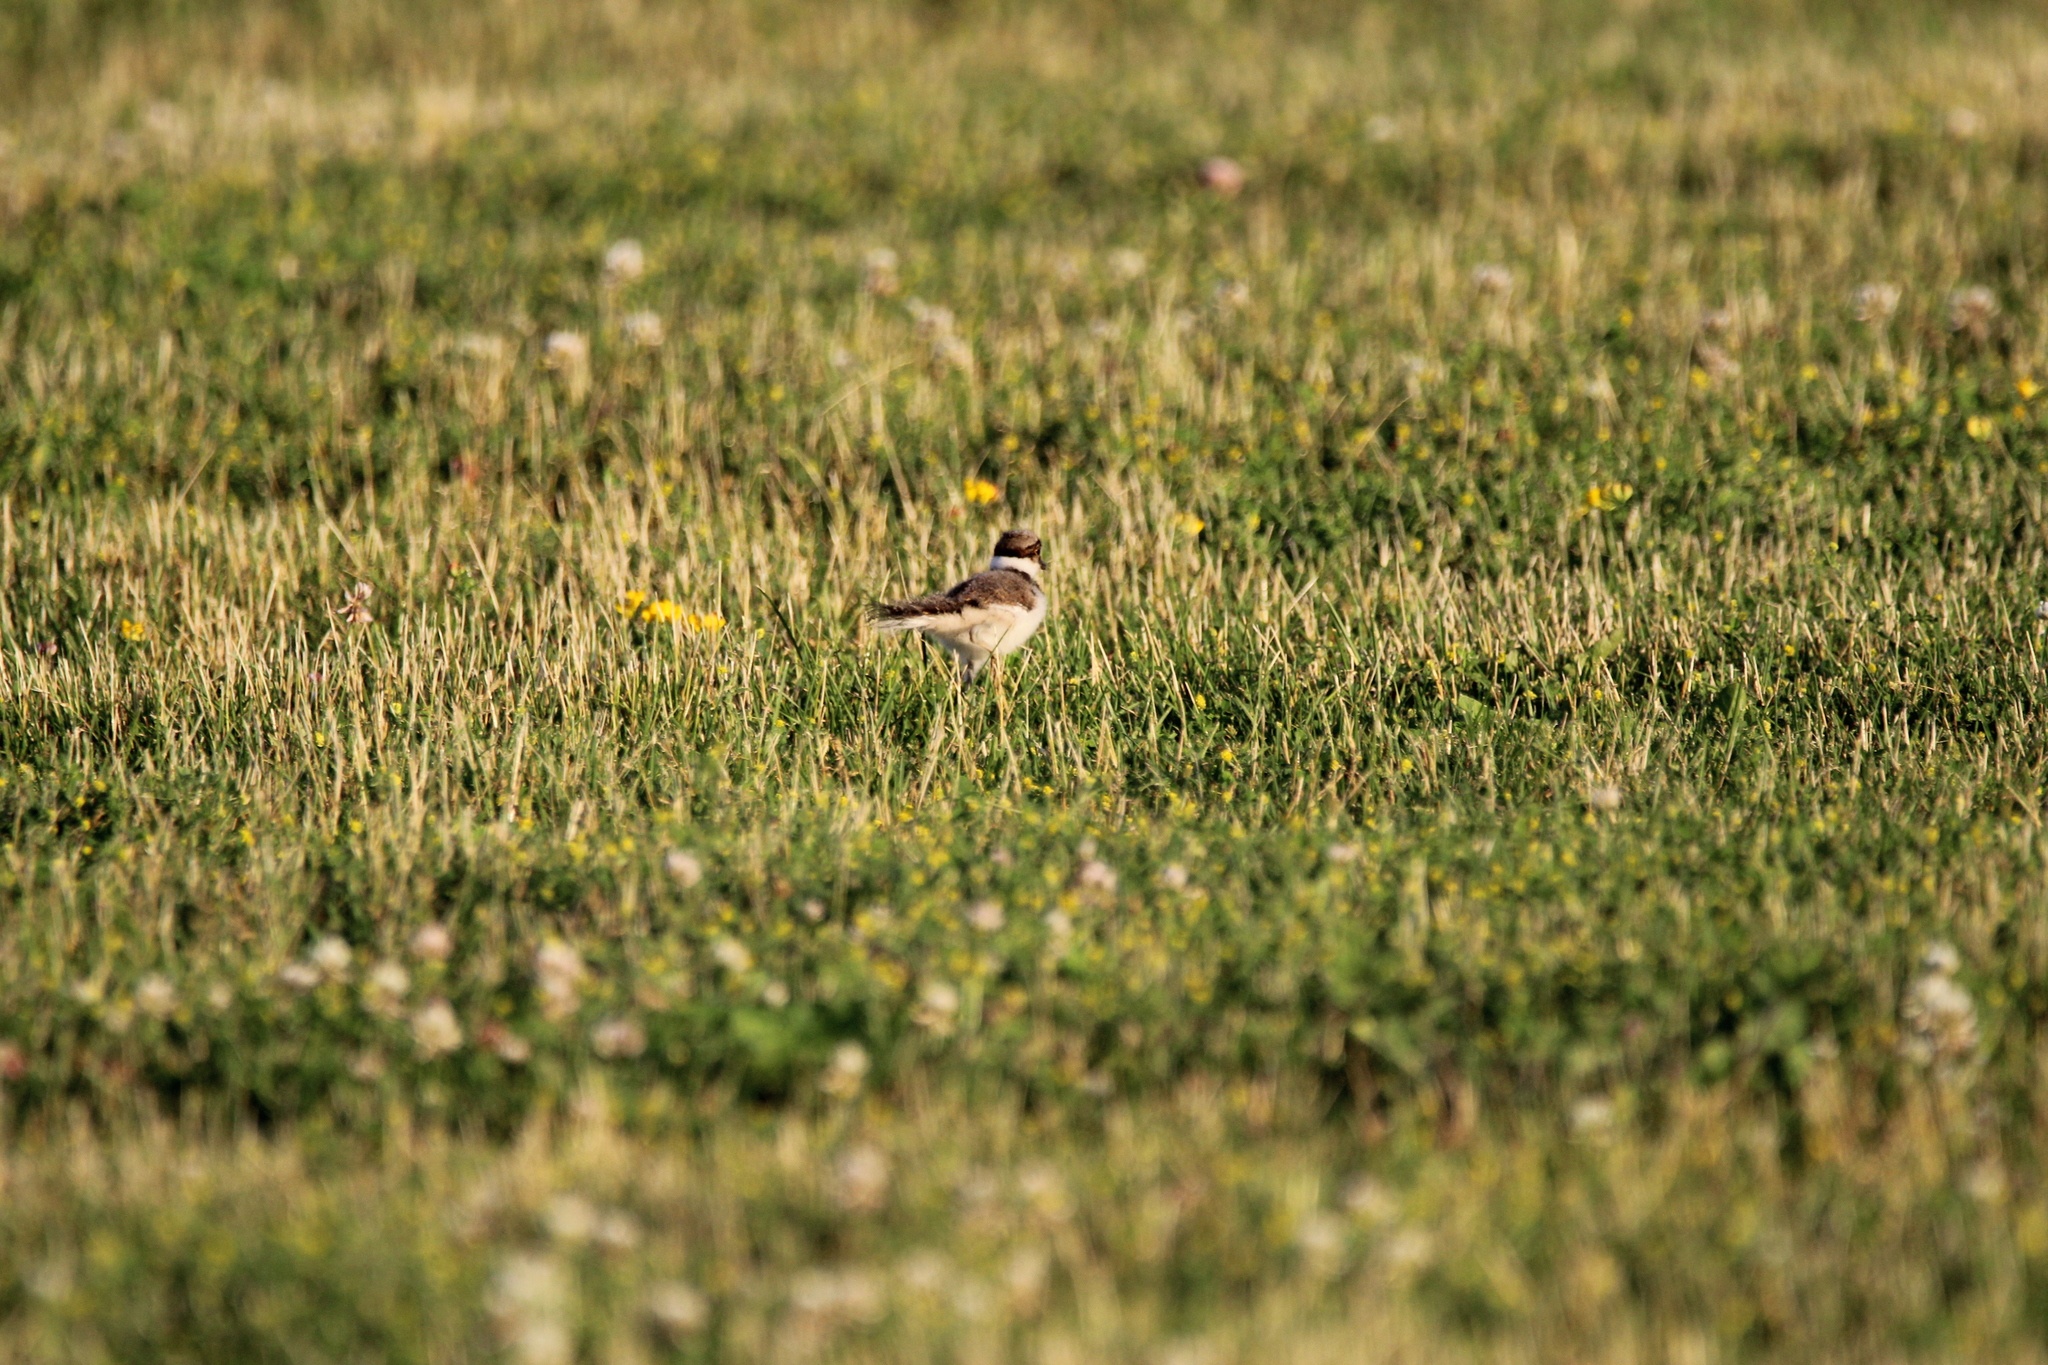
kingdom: Animalia
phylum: Chordata
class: Aves
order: Charadriiformes
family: Charadriidae
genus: Charadrius
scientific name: Charadrius vociferus
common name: Killdeer
